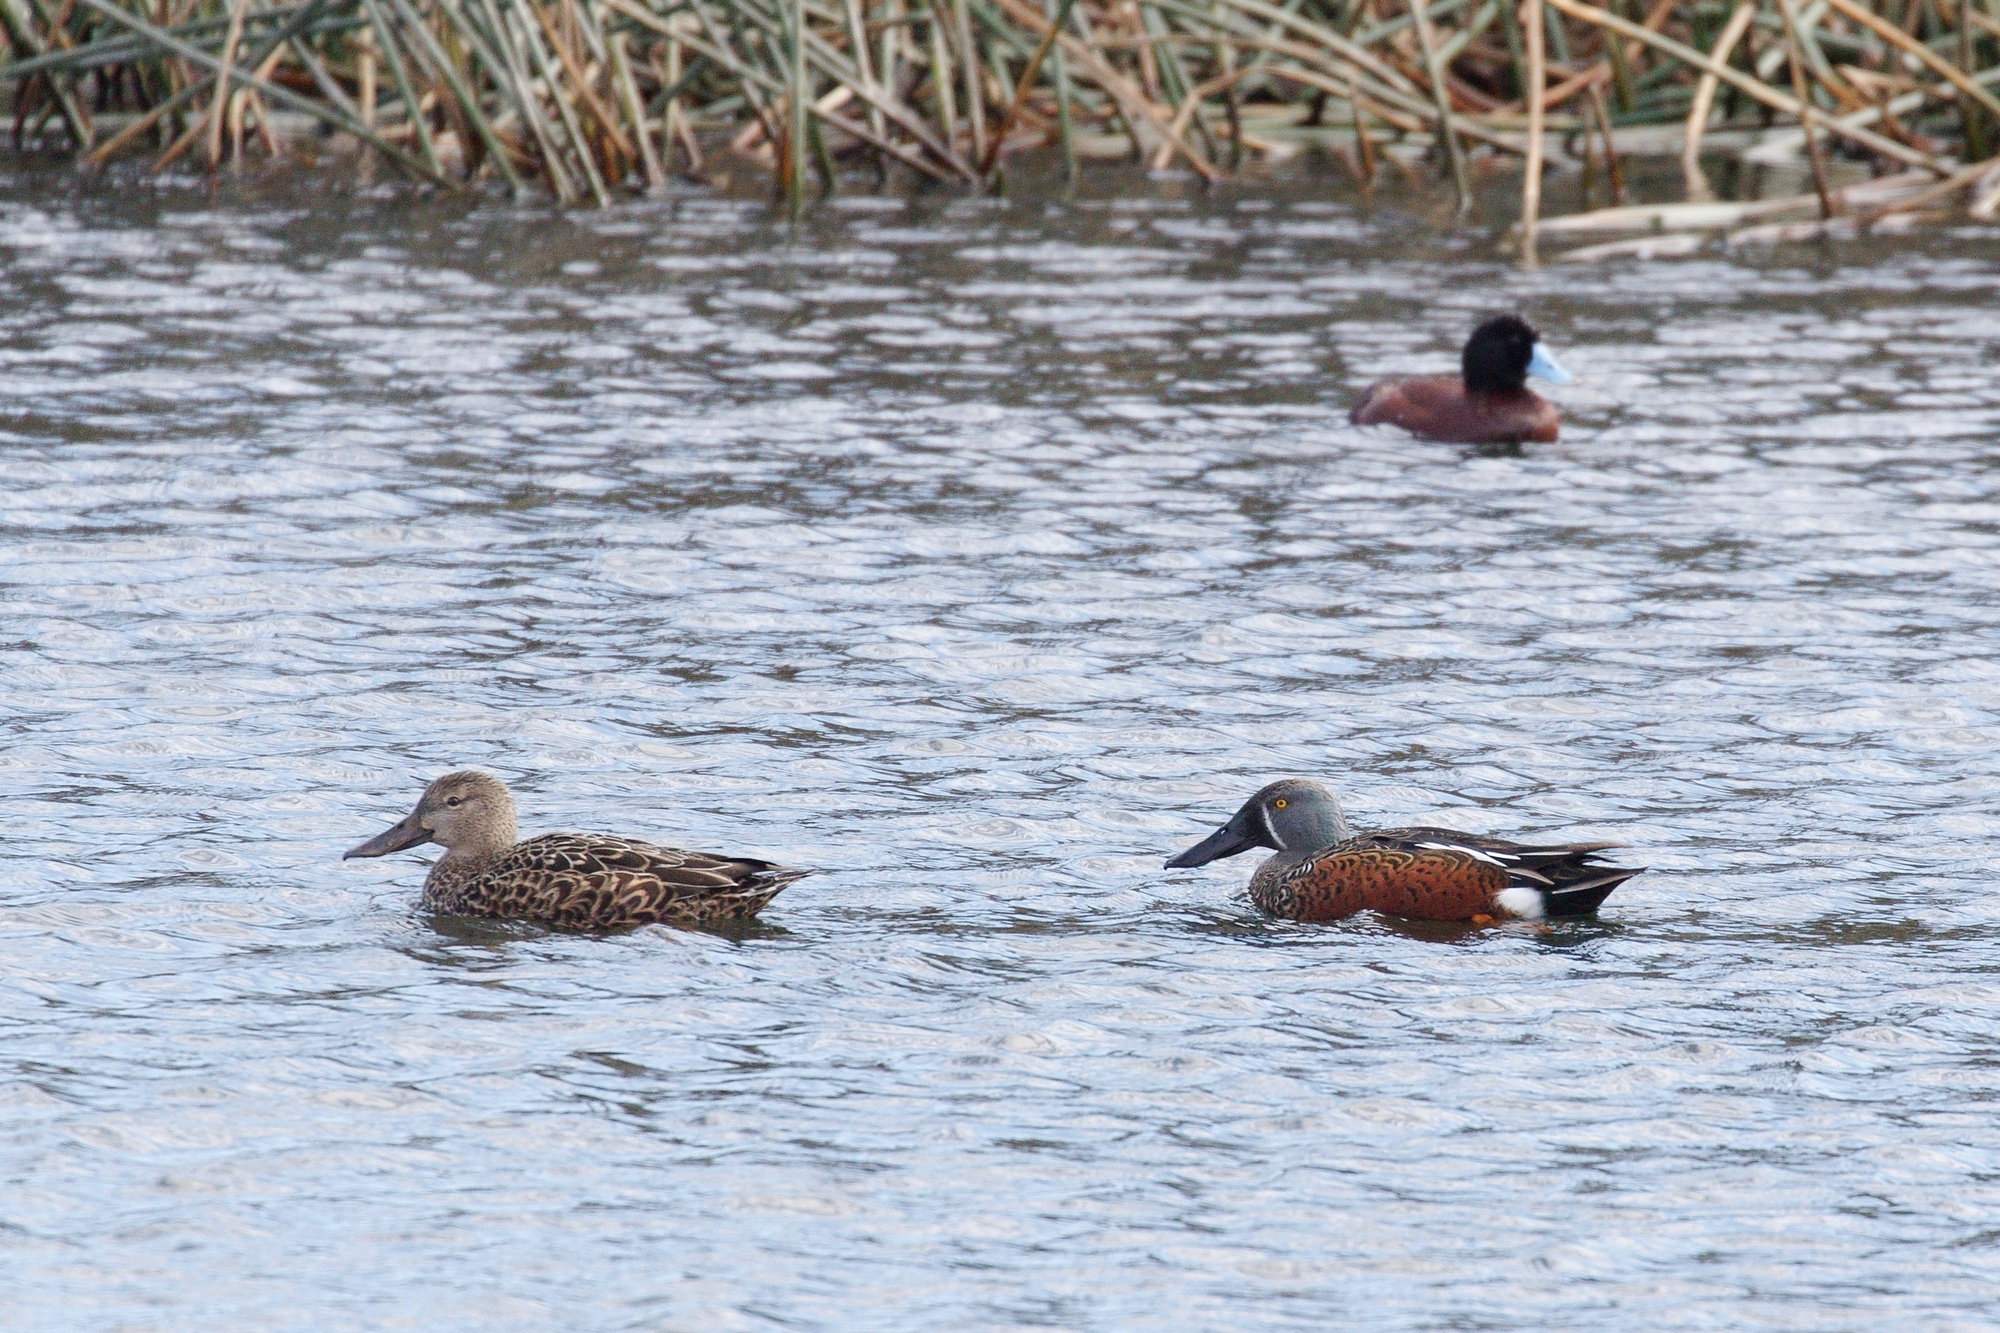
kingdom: Animalia
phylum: Chordata
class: Aves
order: Anseriformes
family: Anatidae
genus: Spatula
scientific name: Spatula rhynchotis
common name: Australian shoveler
